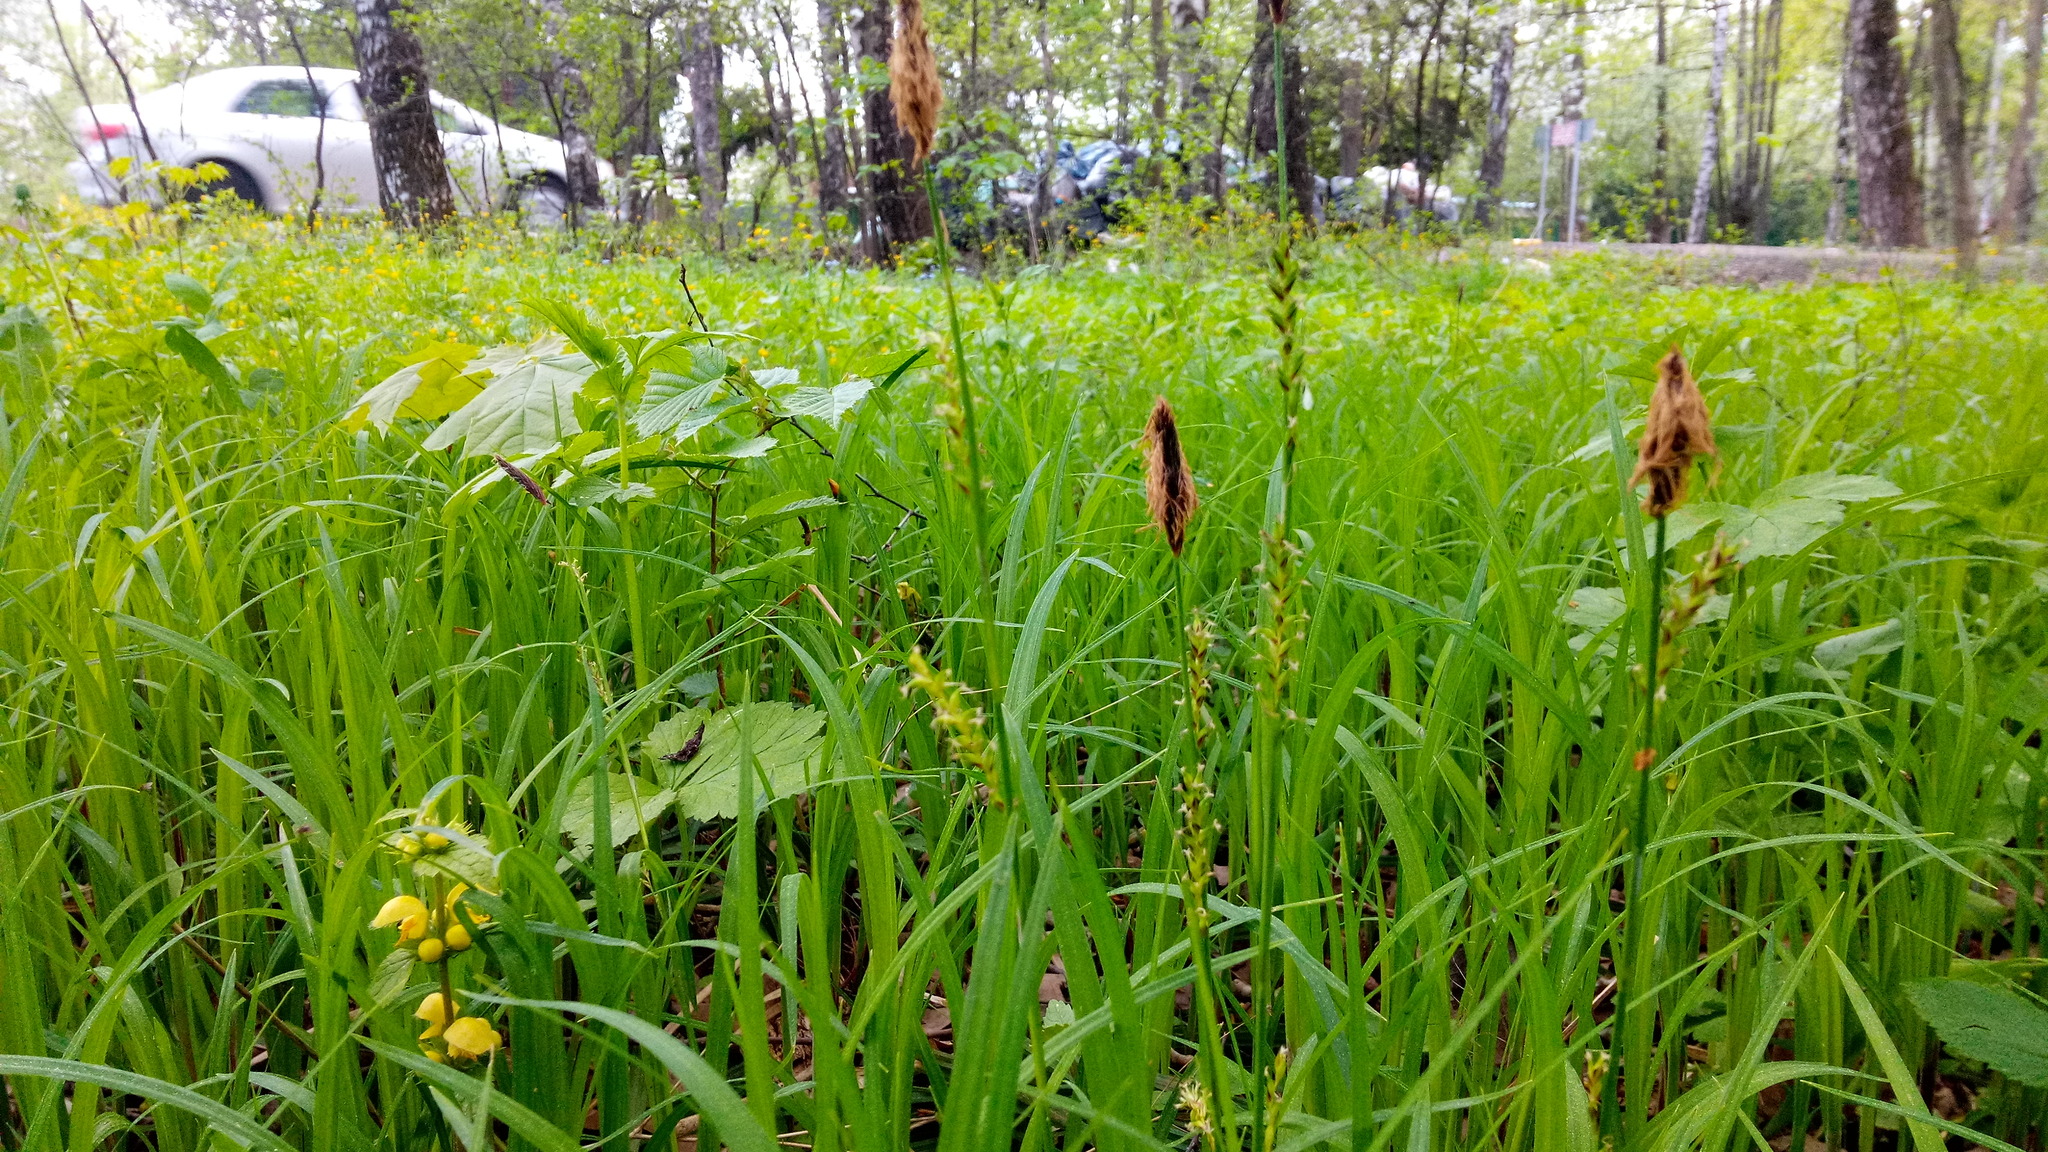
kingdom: Plantae
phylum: Tracheophyta
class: Liliopsida
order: Poales
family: Cyperaceae
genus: Carex
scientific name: Carex pilosa
